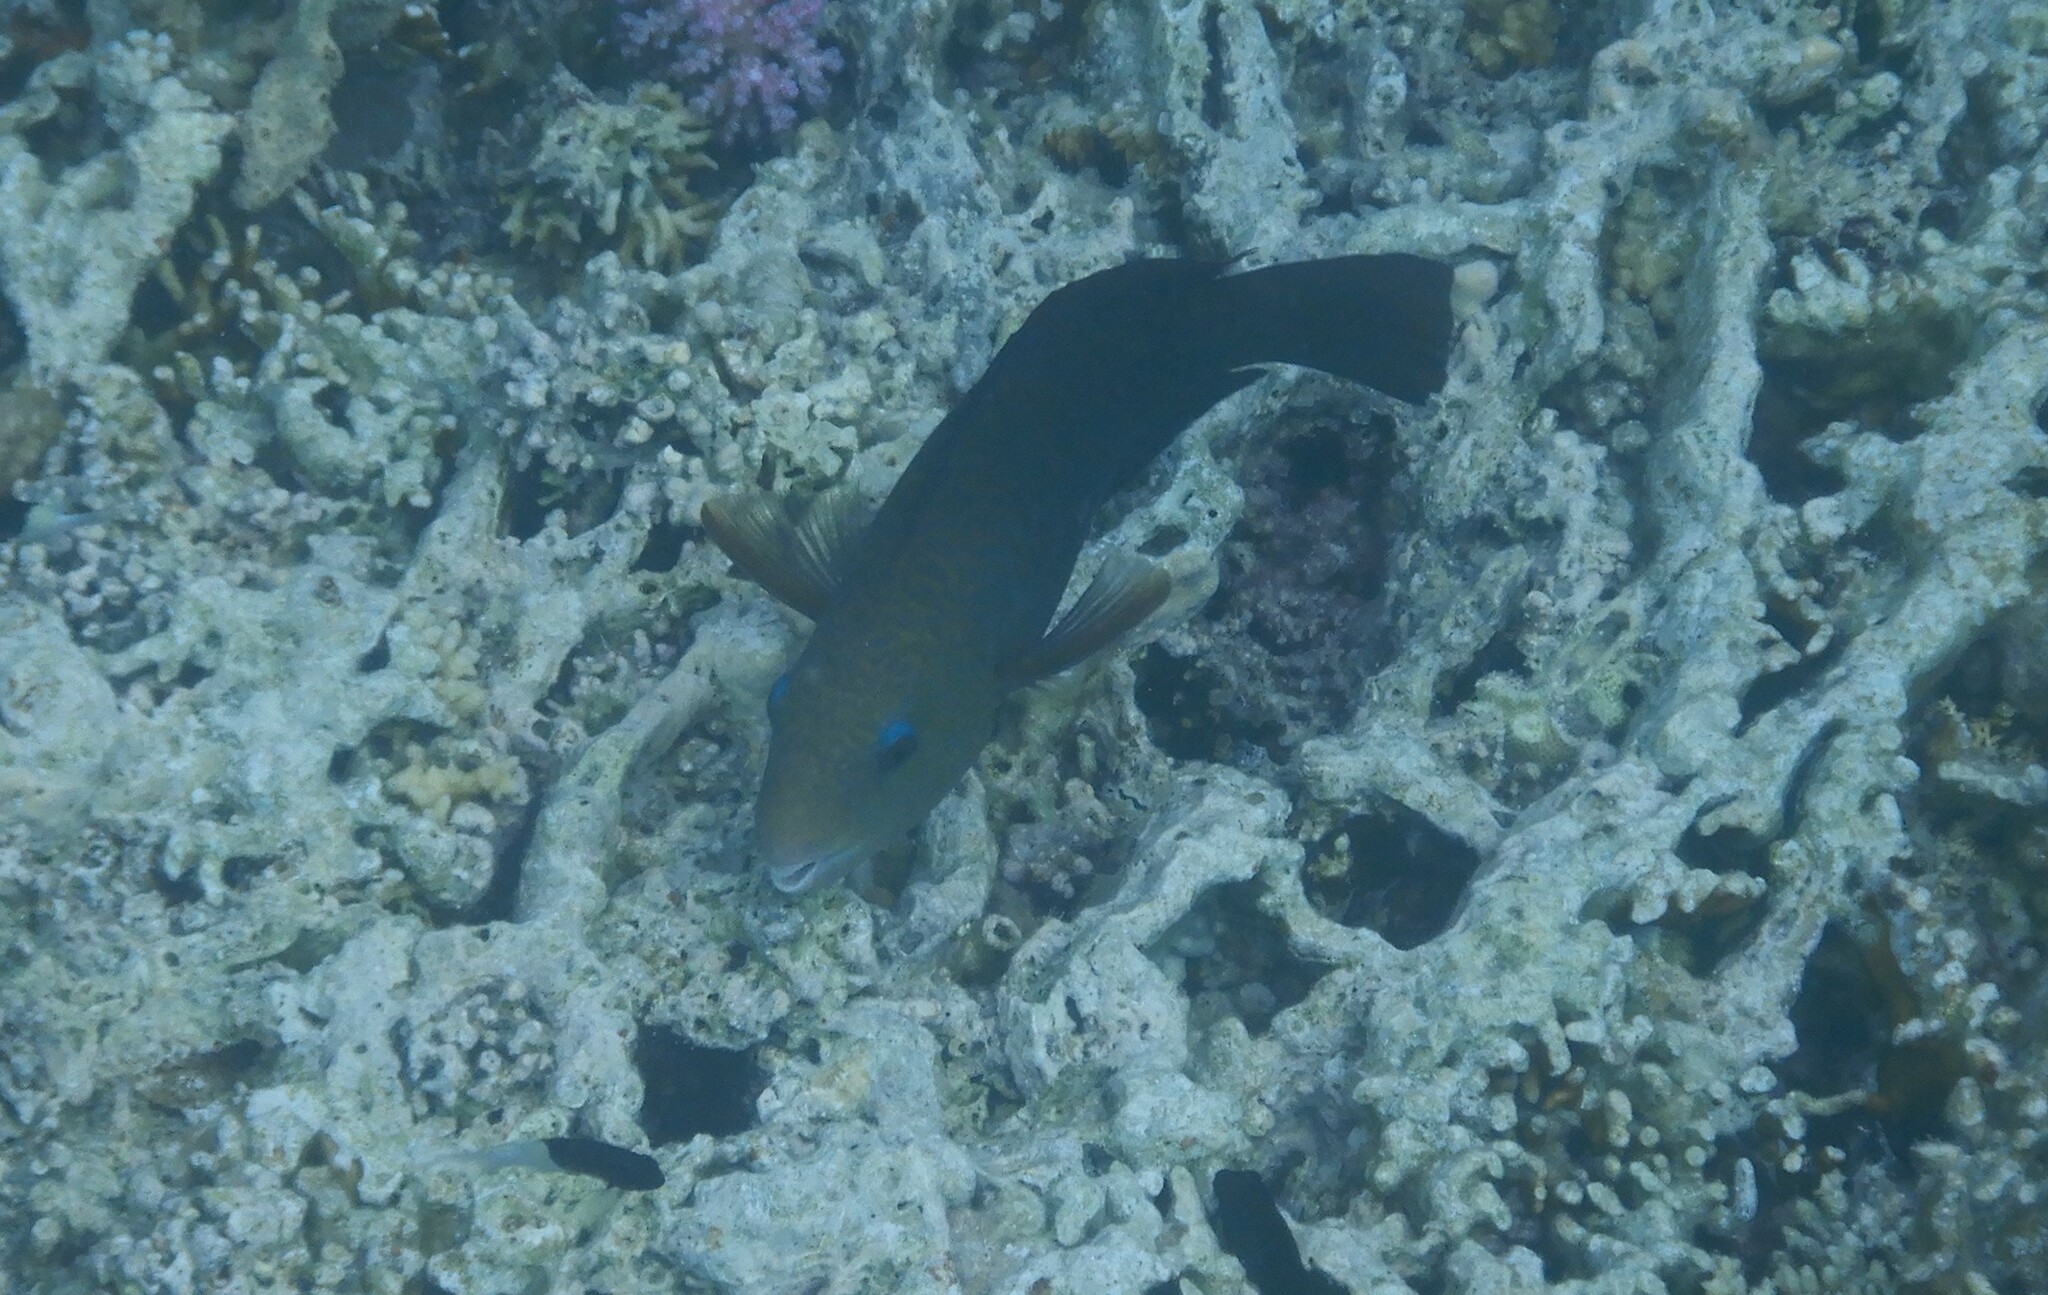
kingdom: Animalia
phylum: Chordata
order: Perciformes
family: Scaridae
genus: Chlorurus
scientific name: Chlorurus sordidus
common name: Bullethead parrotfish
